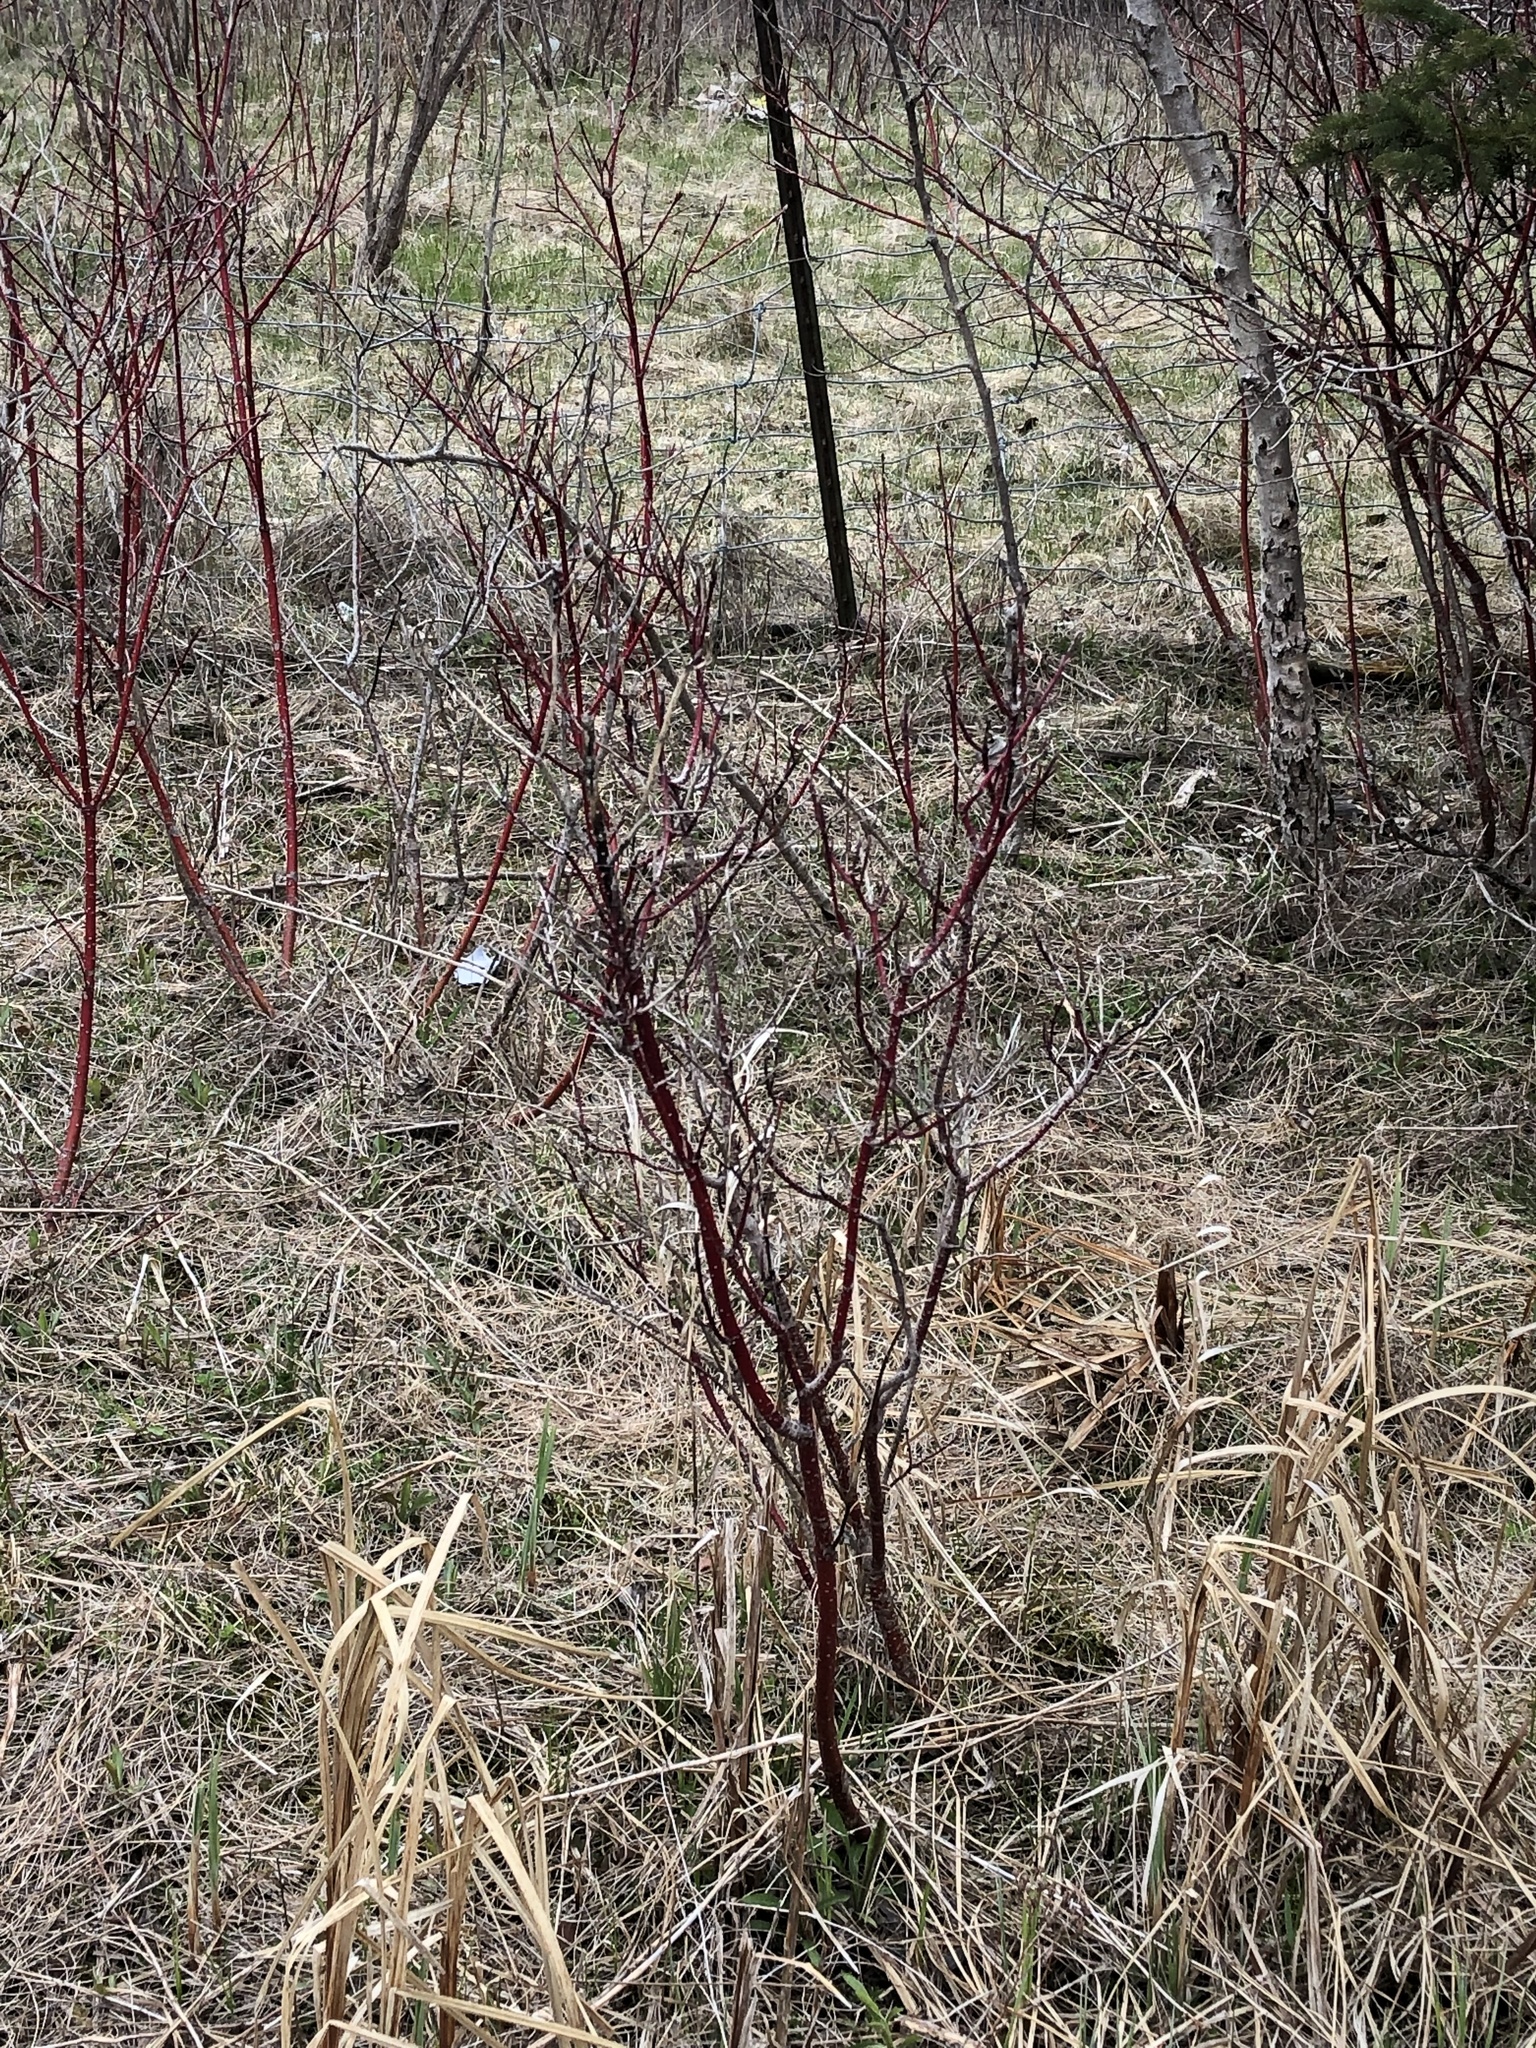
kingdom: Plantae
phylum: Tracheophyta
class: Magnoliopsida
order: Cornales
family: Cornaceae
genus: Cornus
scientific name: Cornus sericea
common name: Red-osier dogwood
